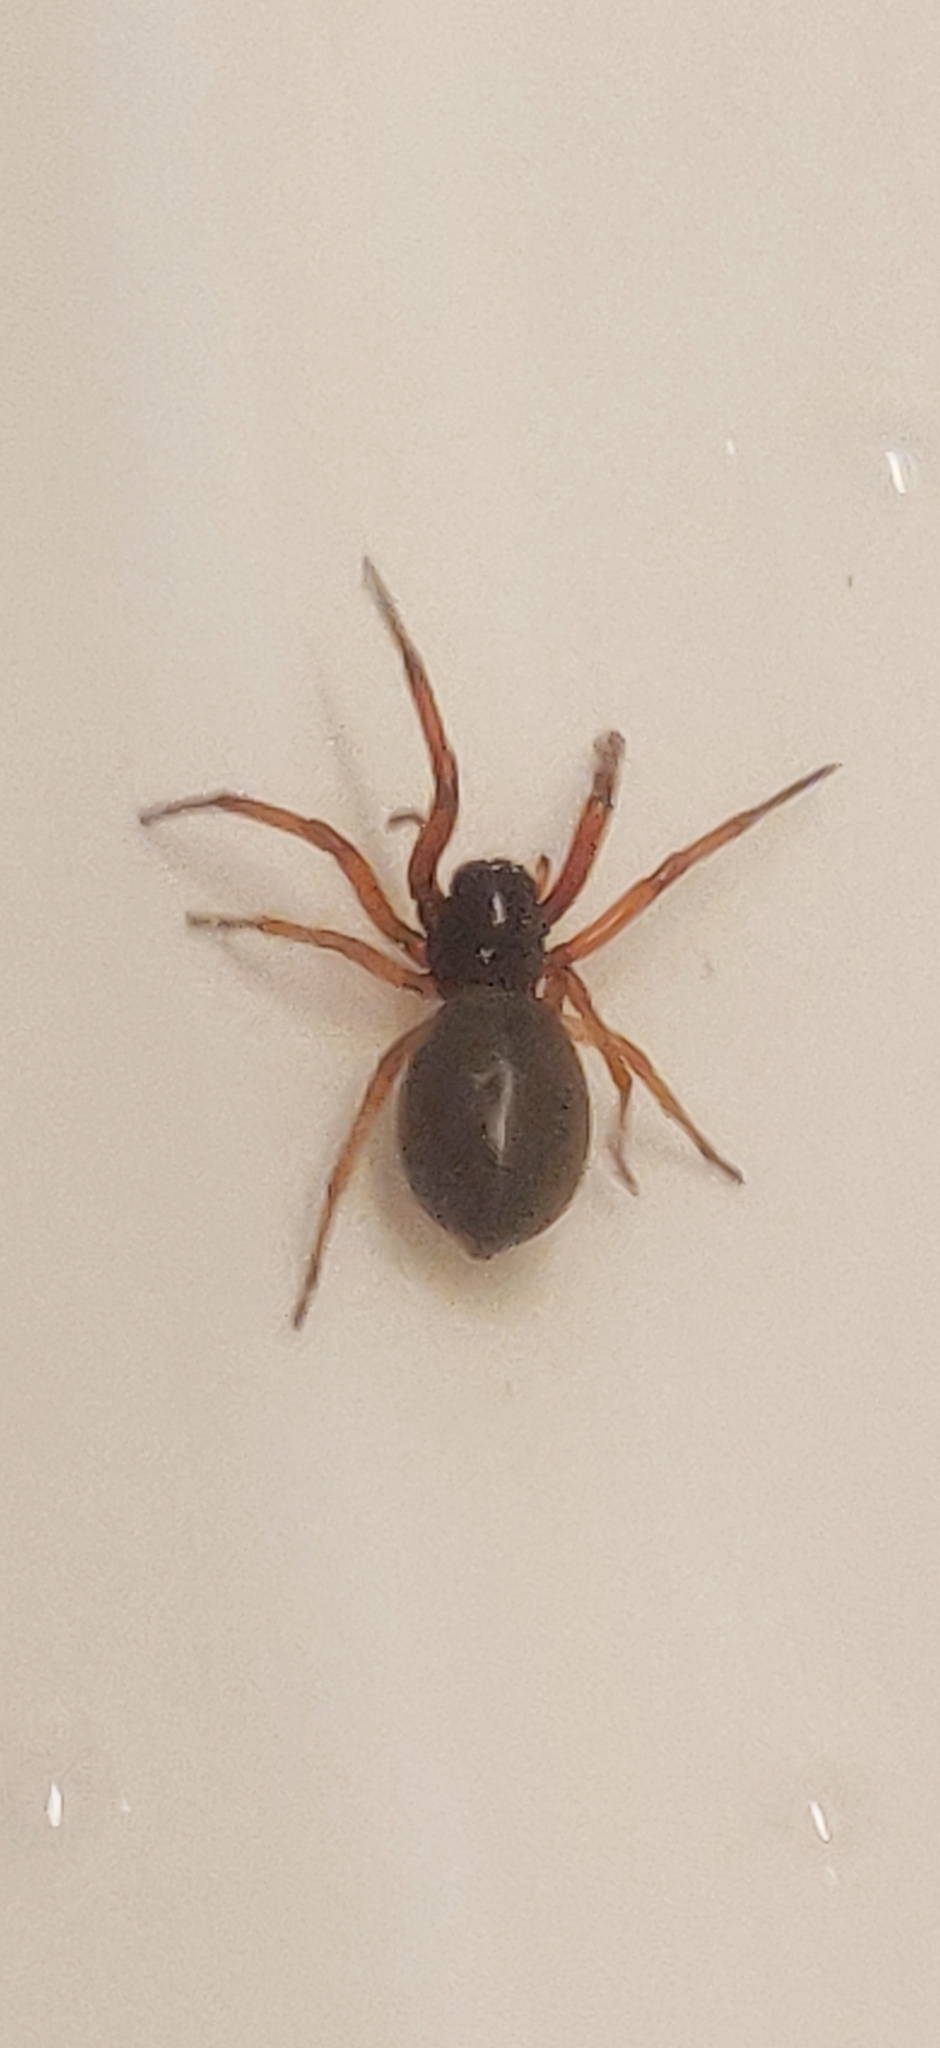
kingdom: Animalia
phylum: Arthropoda
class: Arachnida
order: Araneae
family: Trachelidae
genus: Trachelas
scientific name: Trachelas tranquillus
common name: Broad-faced sac spider
